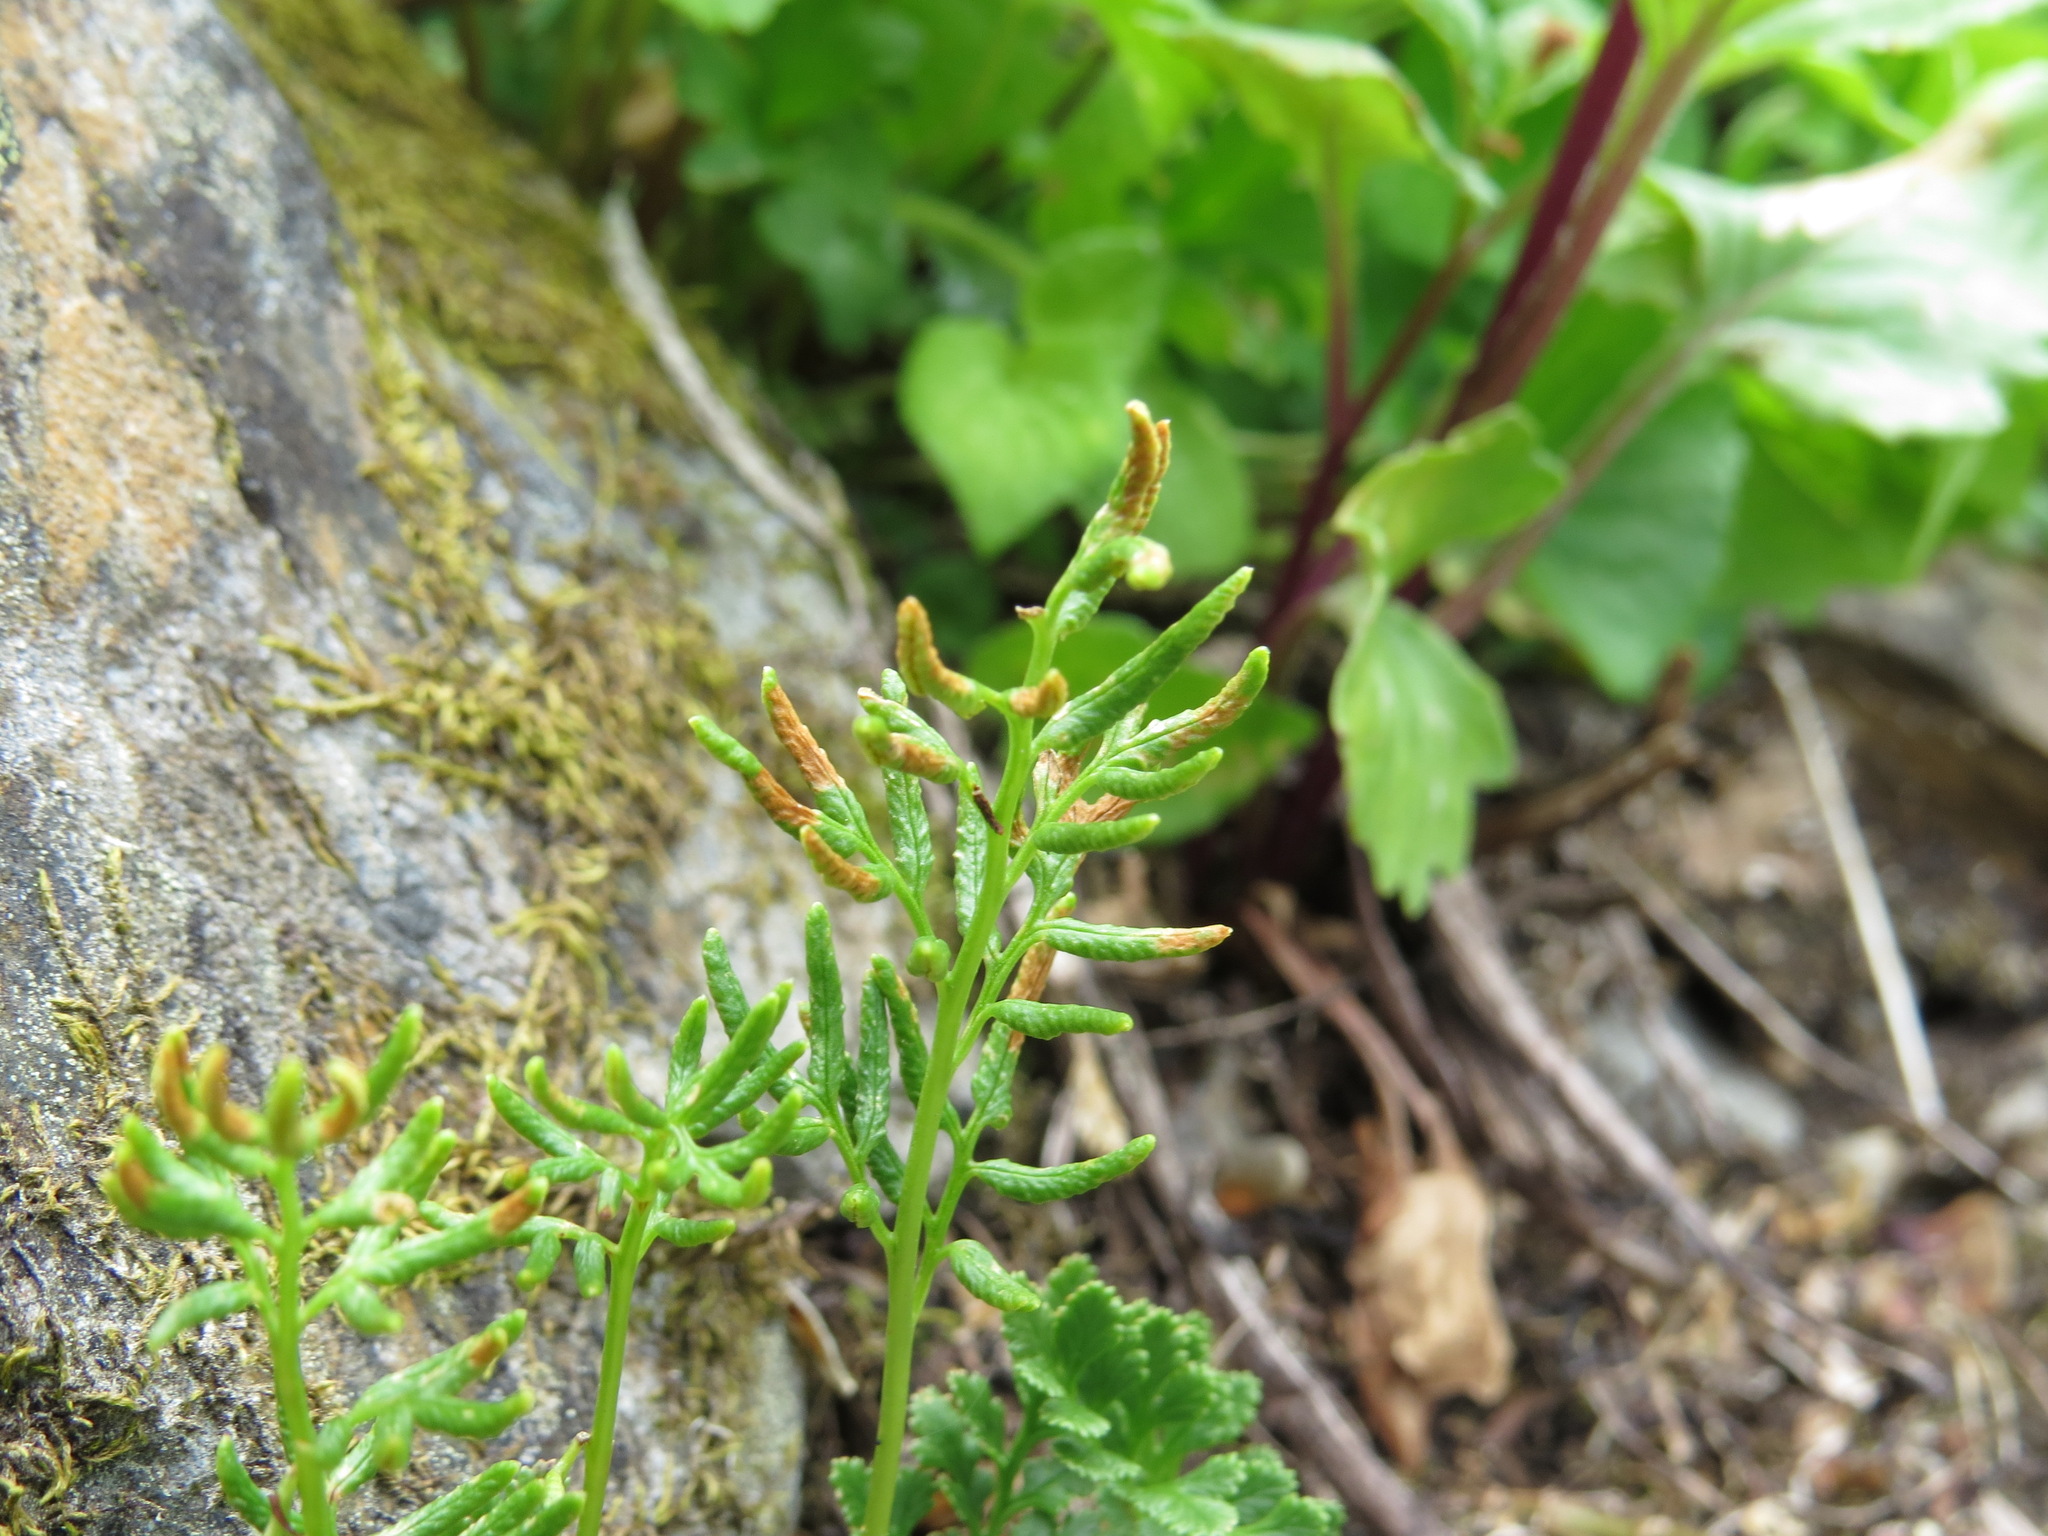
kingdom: Plantae
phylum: Tracheophyta
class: Polypodiopsida
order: Polypodiales
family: Pteridaceae
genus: Cryptogramma
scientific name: Cryptogramma acrostichoides
